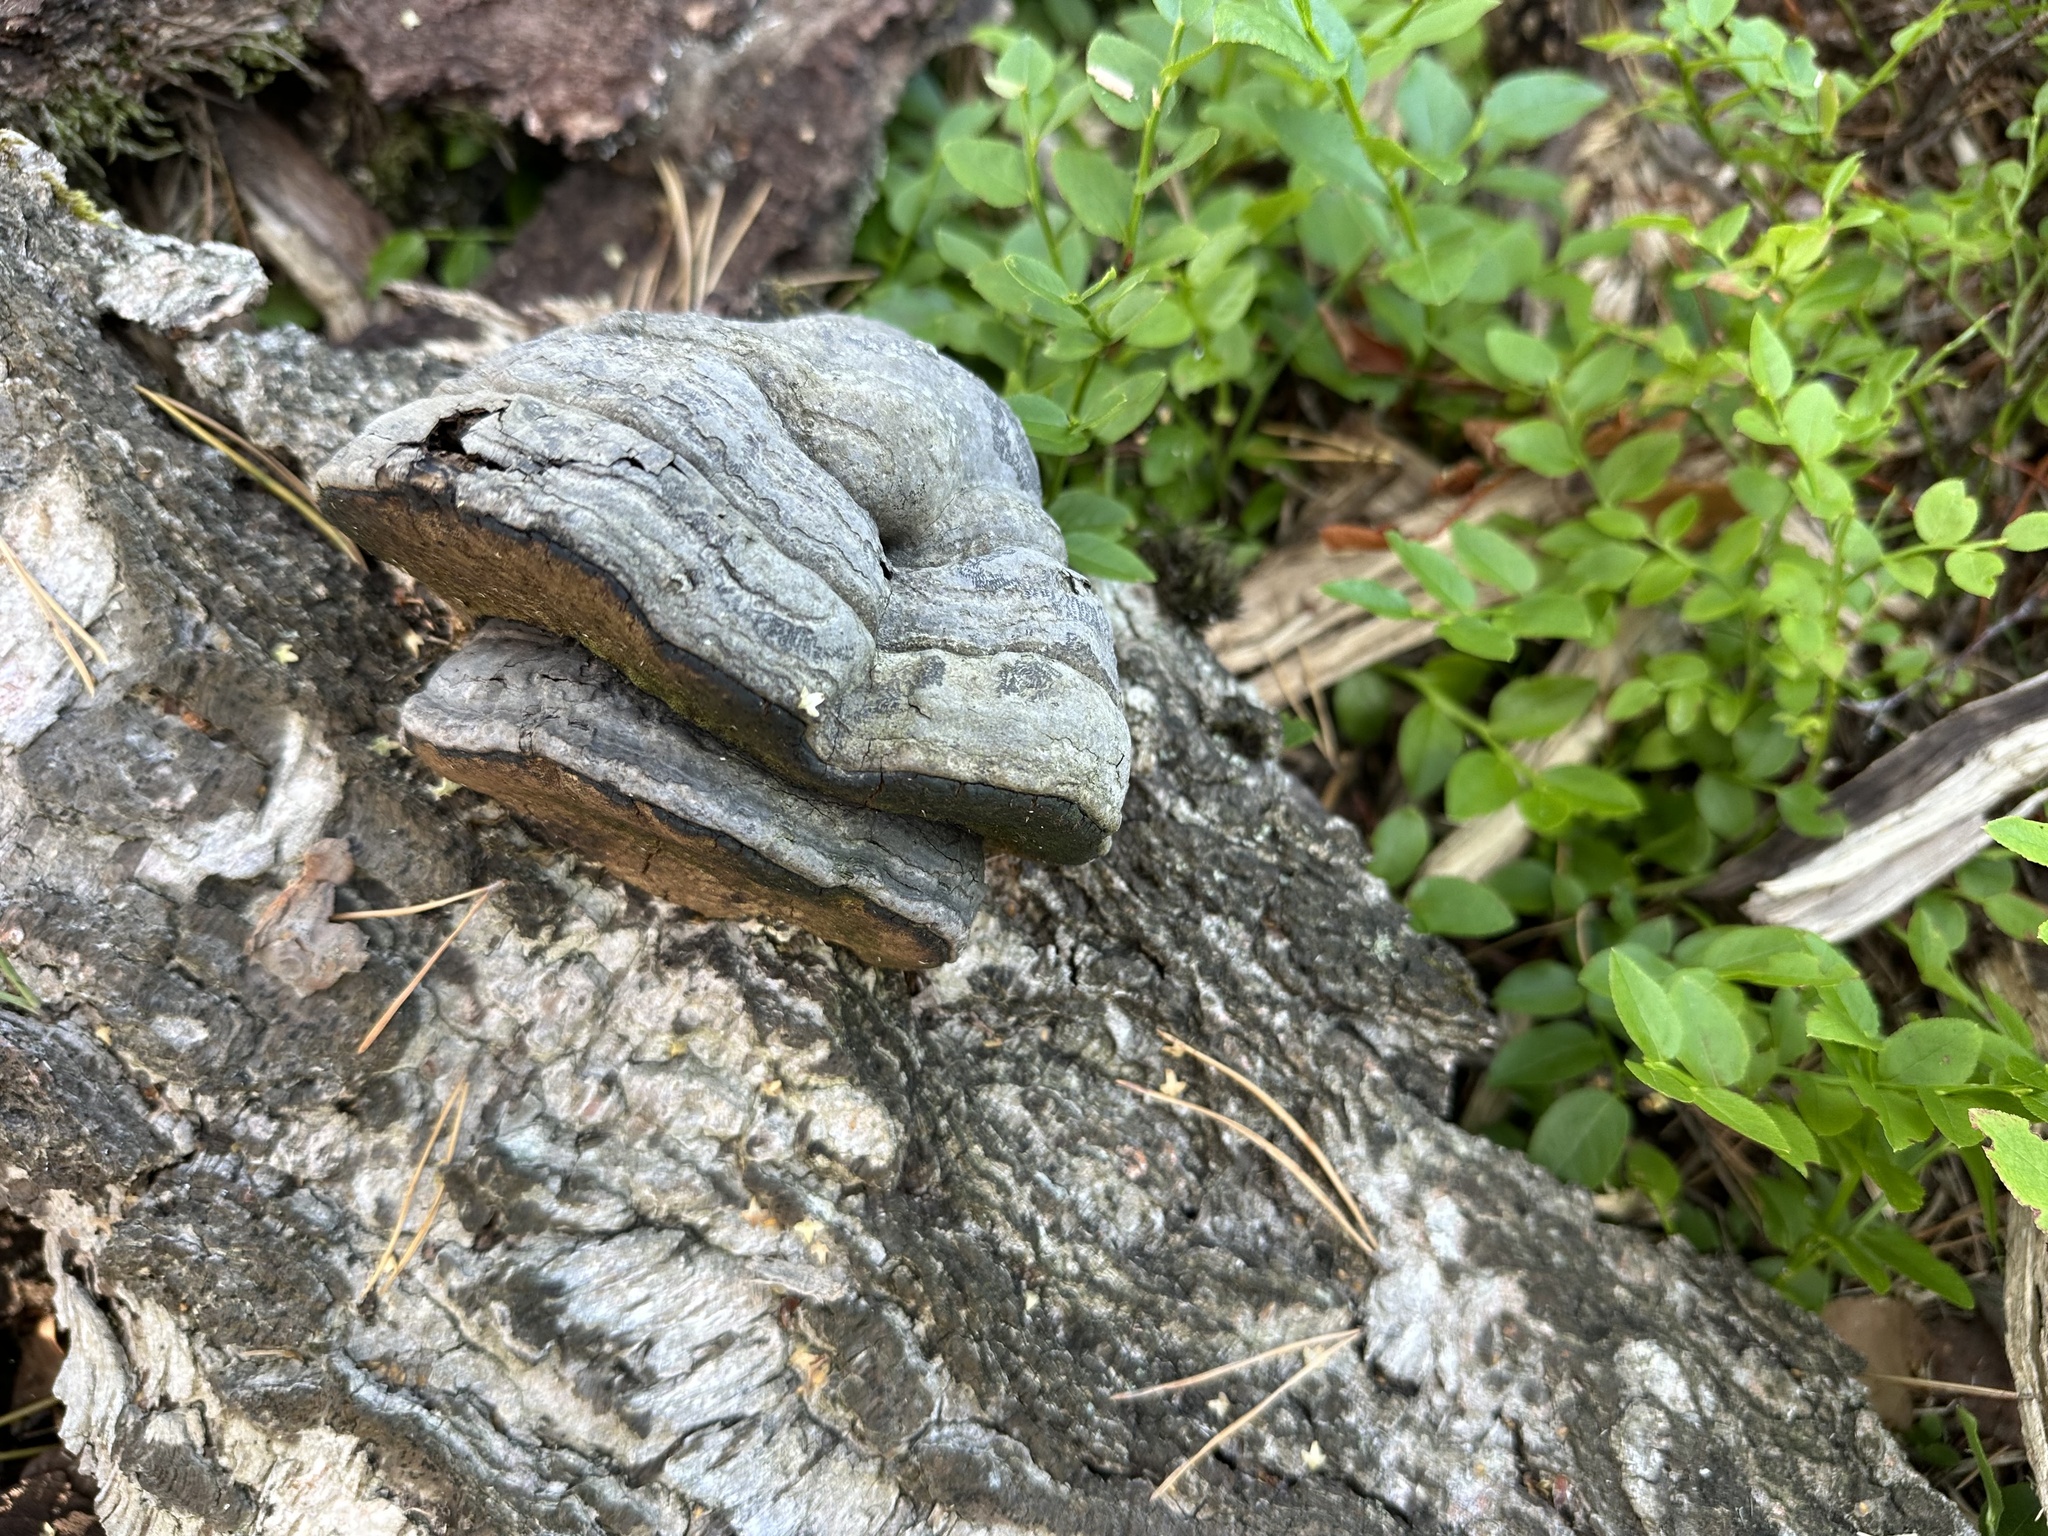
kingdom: Fungi
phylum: Basidiomycota
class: Agaricomycetes
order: Polyporales
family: Polyporaceae
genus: Fomes
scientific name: Fomes fomentarius
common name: Hoof fungus
